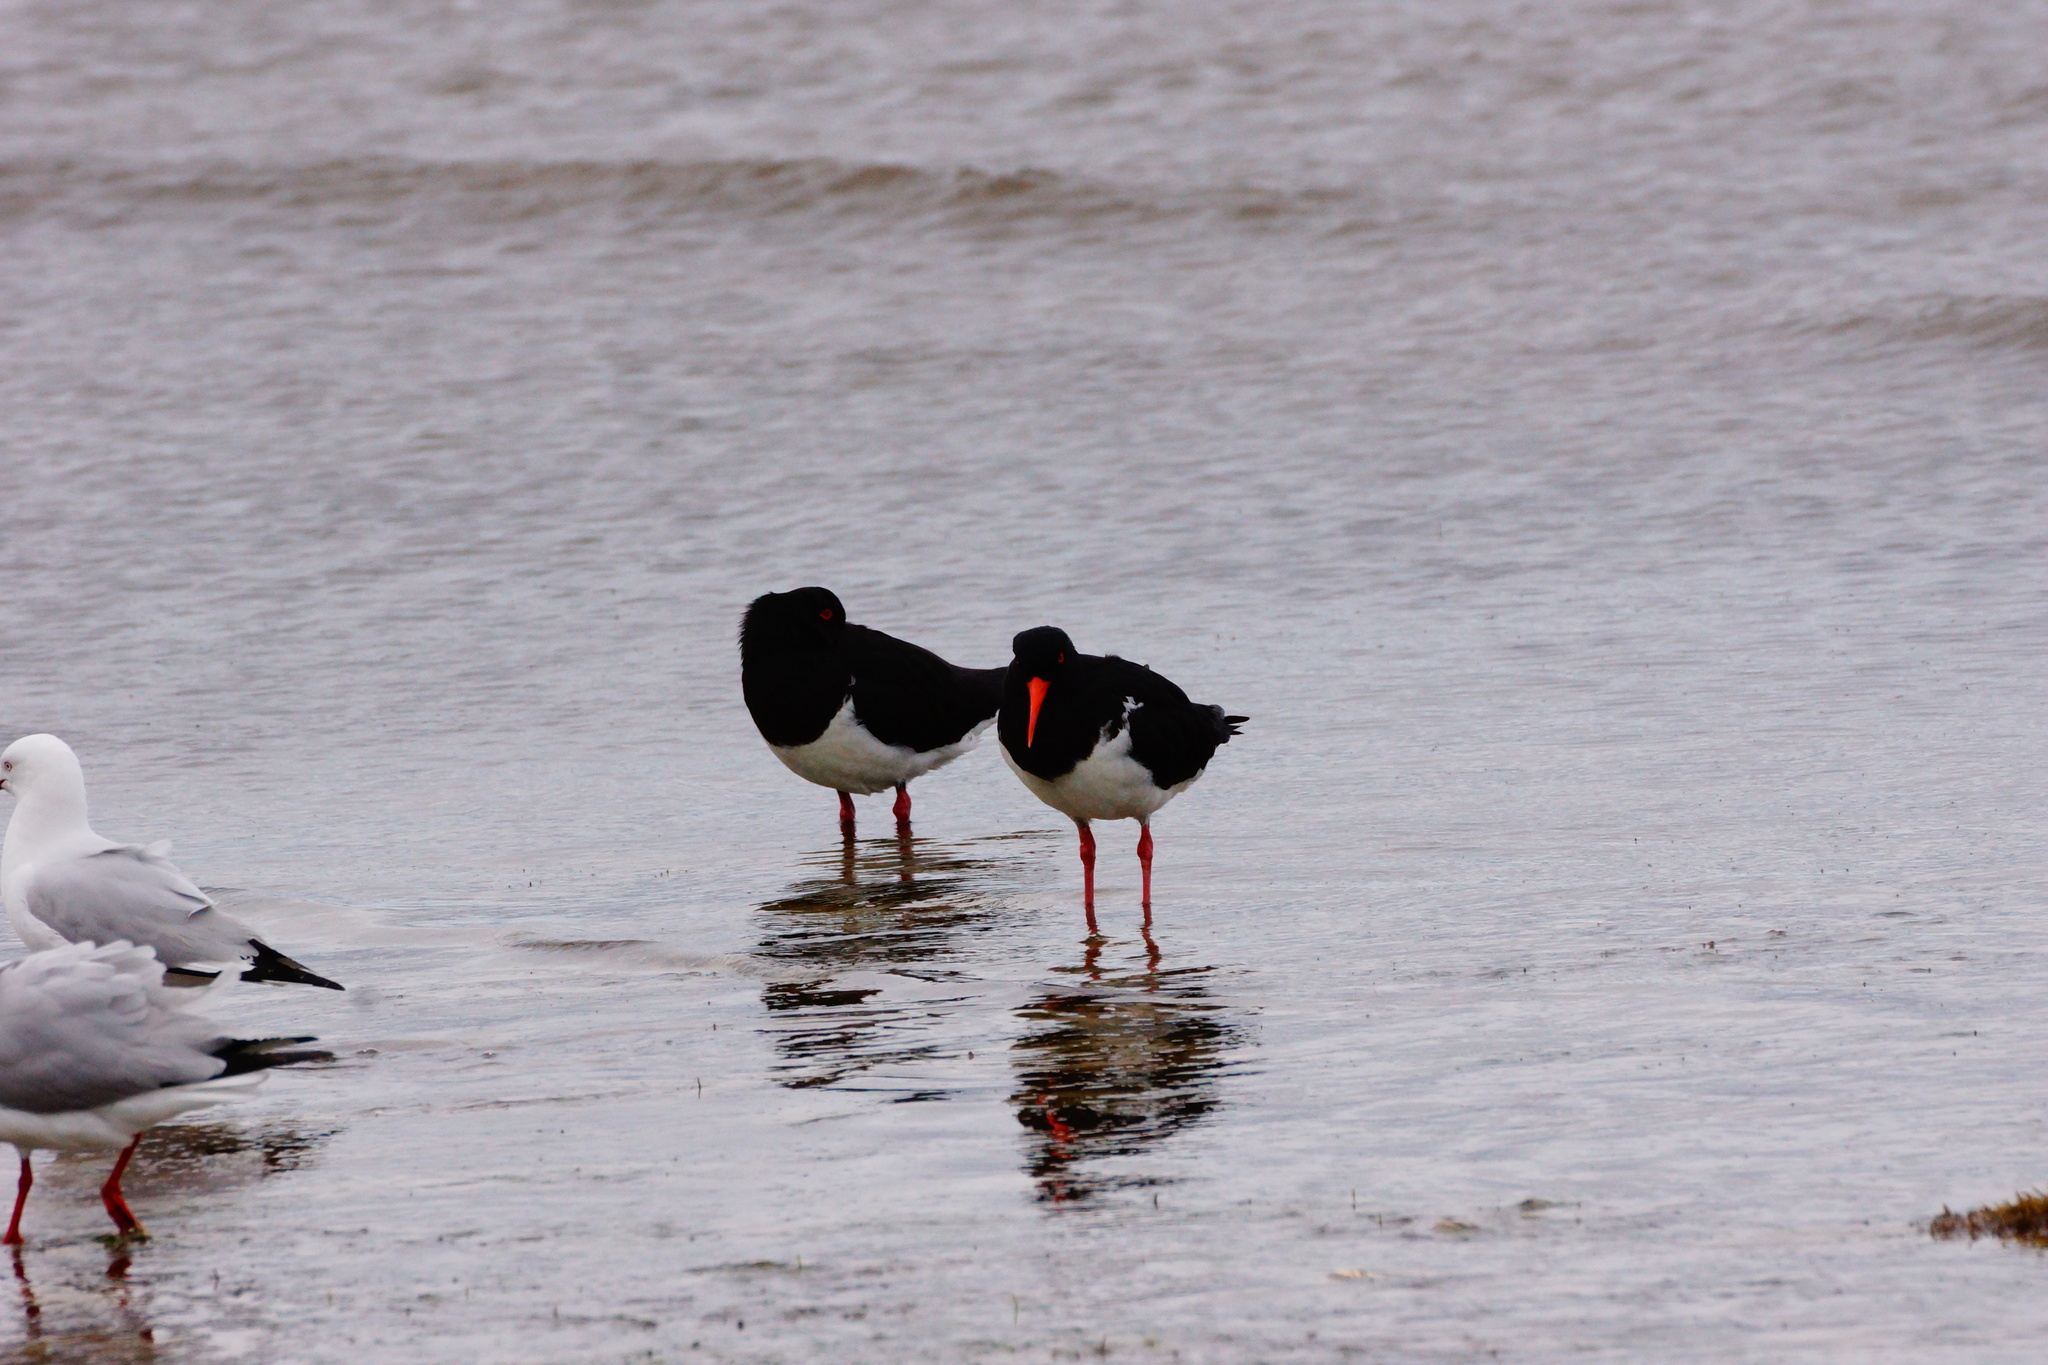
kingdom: Animalia
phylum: Chordata
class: Aves
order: Charadriiformes
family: Haematopodidae
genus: Haematopus
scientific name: Haematopus longirostris
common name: Pied oystercatcher
